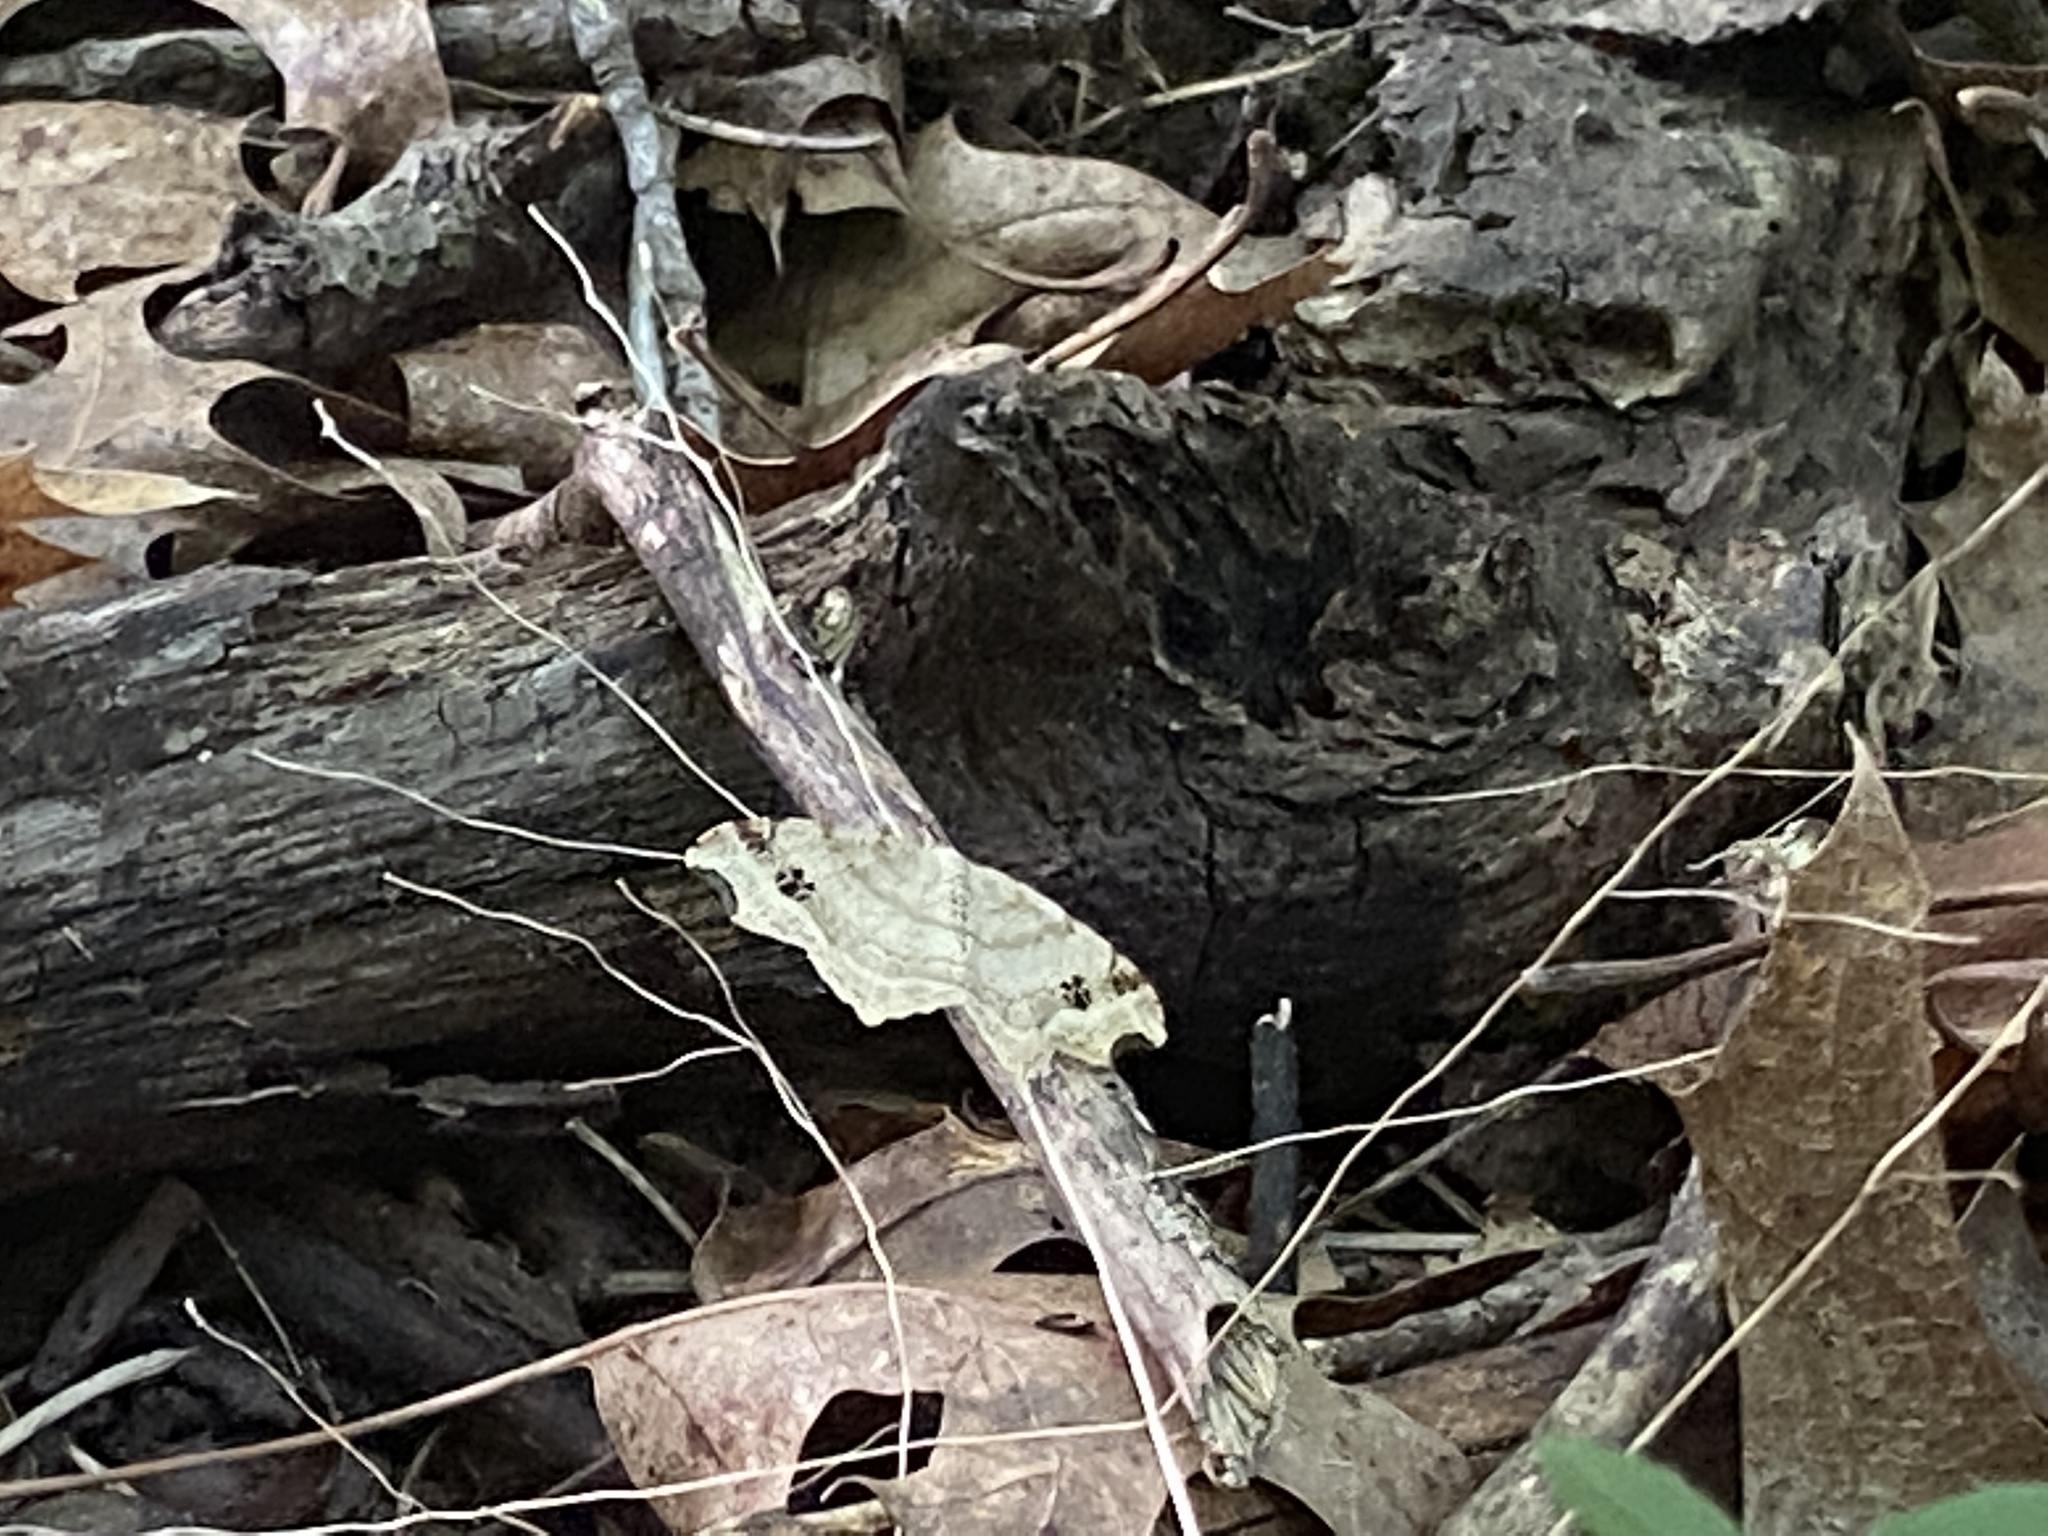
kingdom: Animalia
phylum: Arthropoda
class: Insecta
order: Lepidoptera
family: Geometridae
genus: Macaria
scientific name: Macaria aemulataria
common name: Common angle
